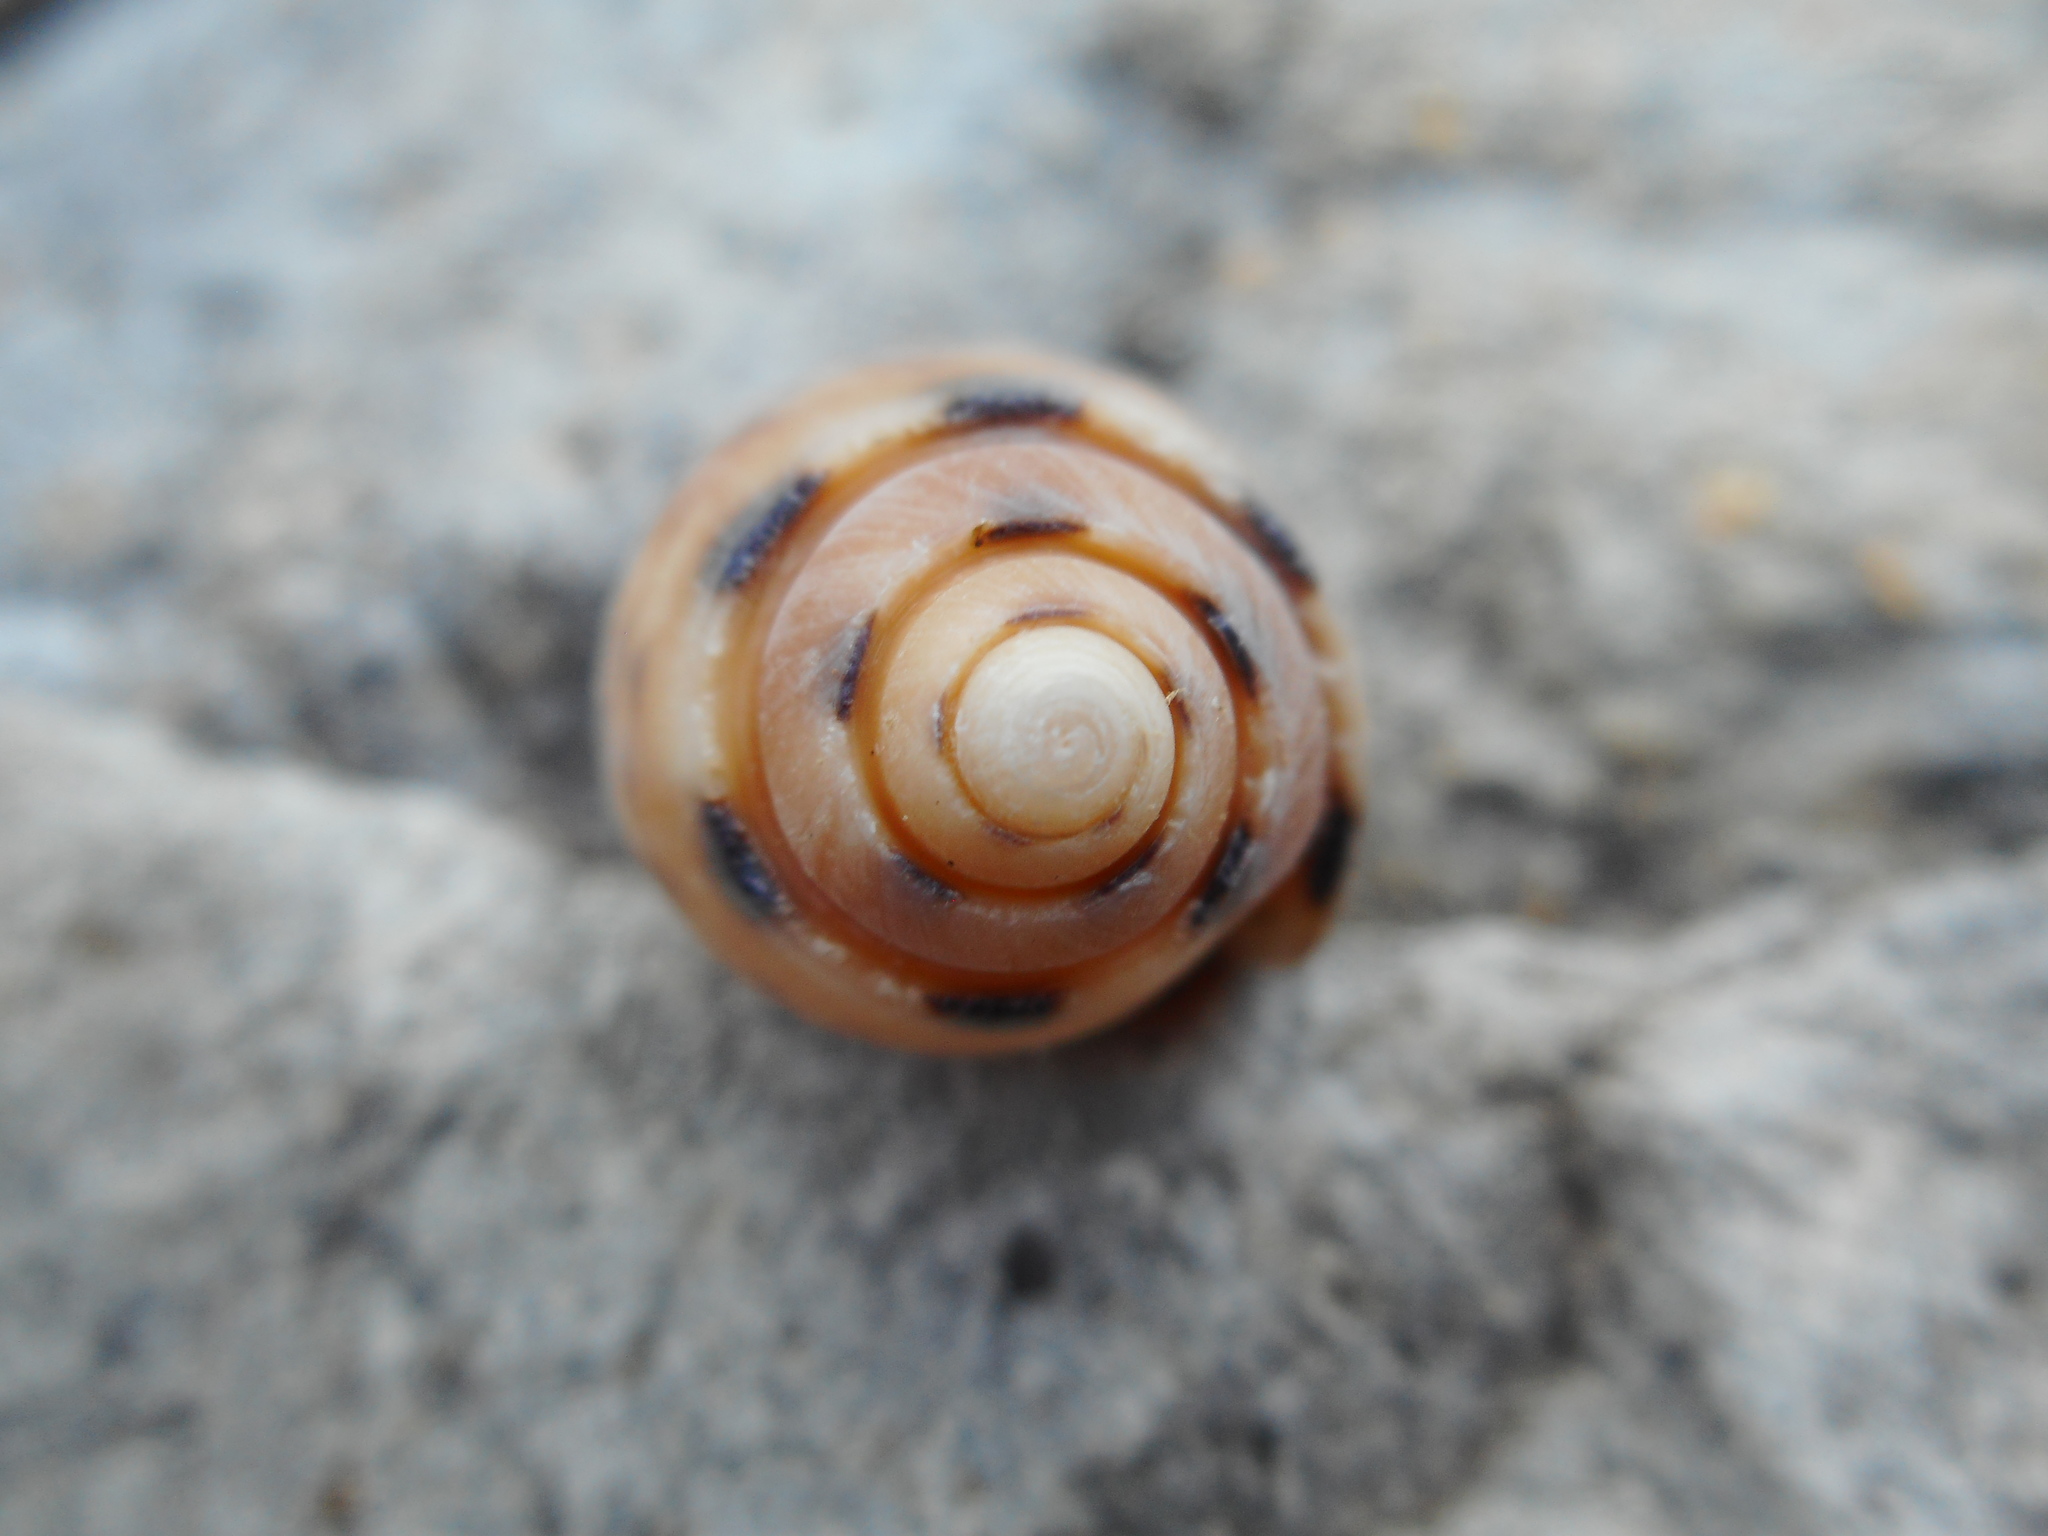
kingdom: Animalia
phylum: Mollusca
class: Gastropoda
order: Neogastropoda
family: Olividae
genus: Oliva
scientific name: Oliva amethystina
